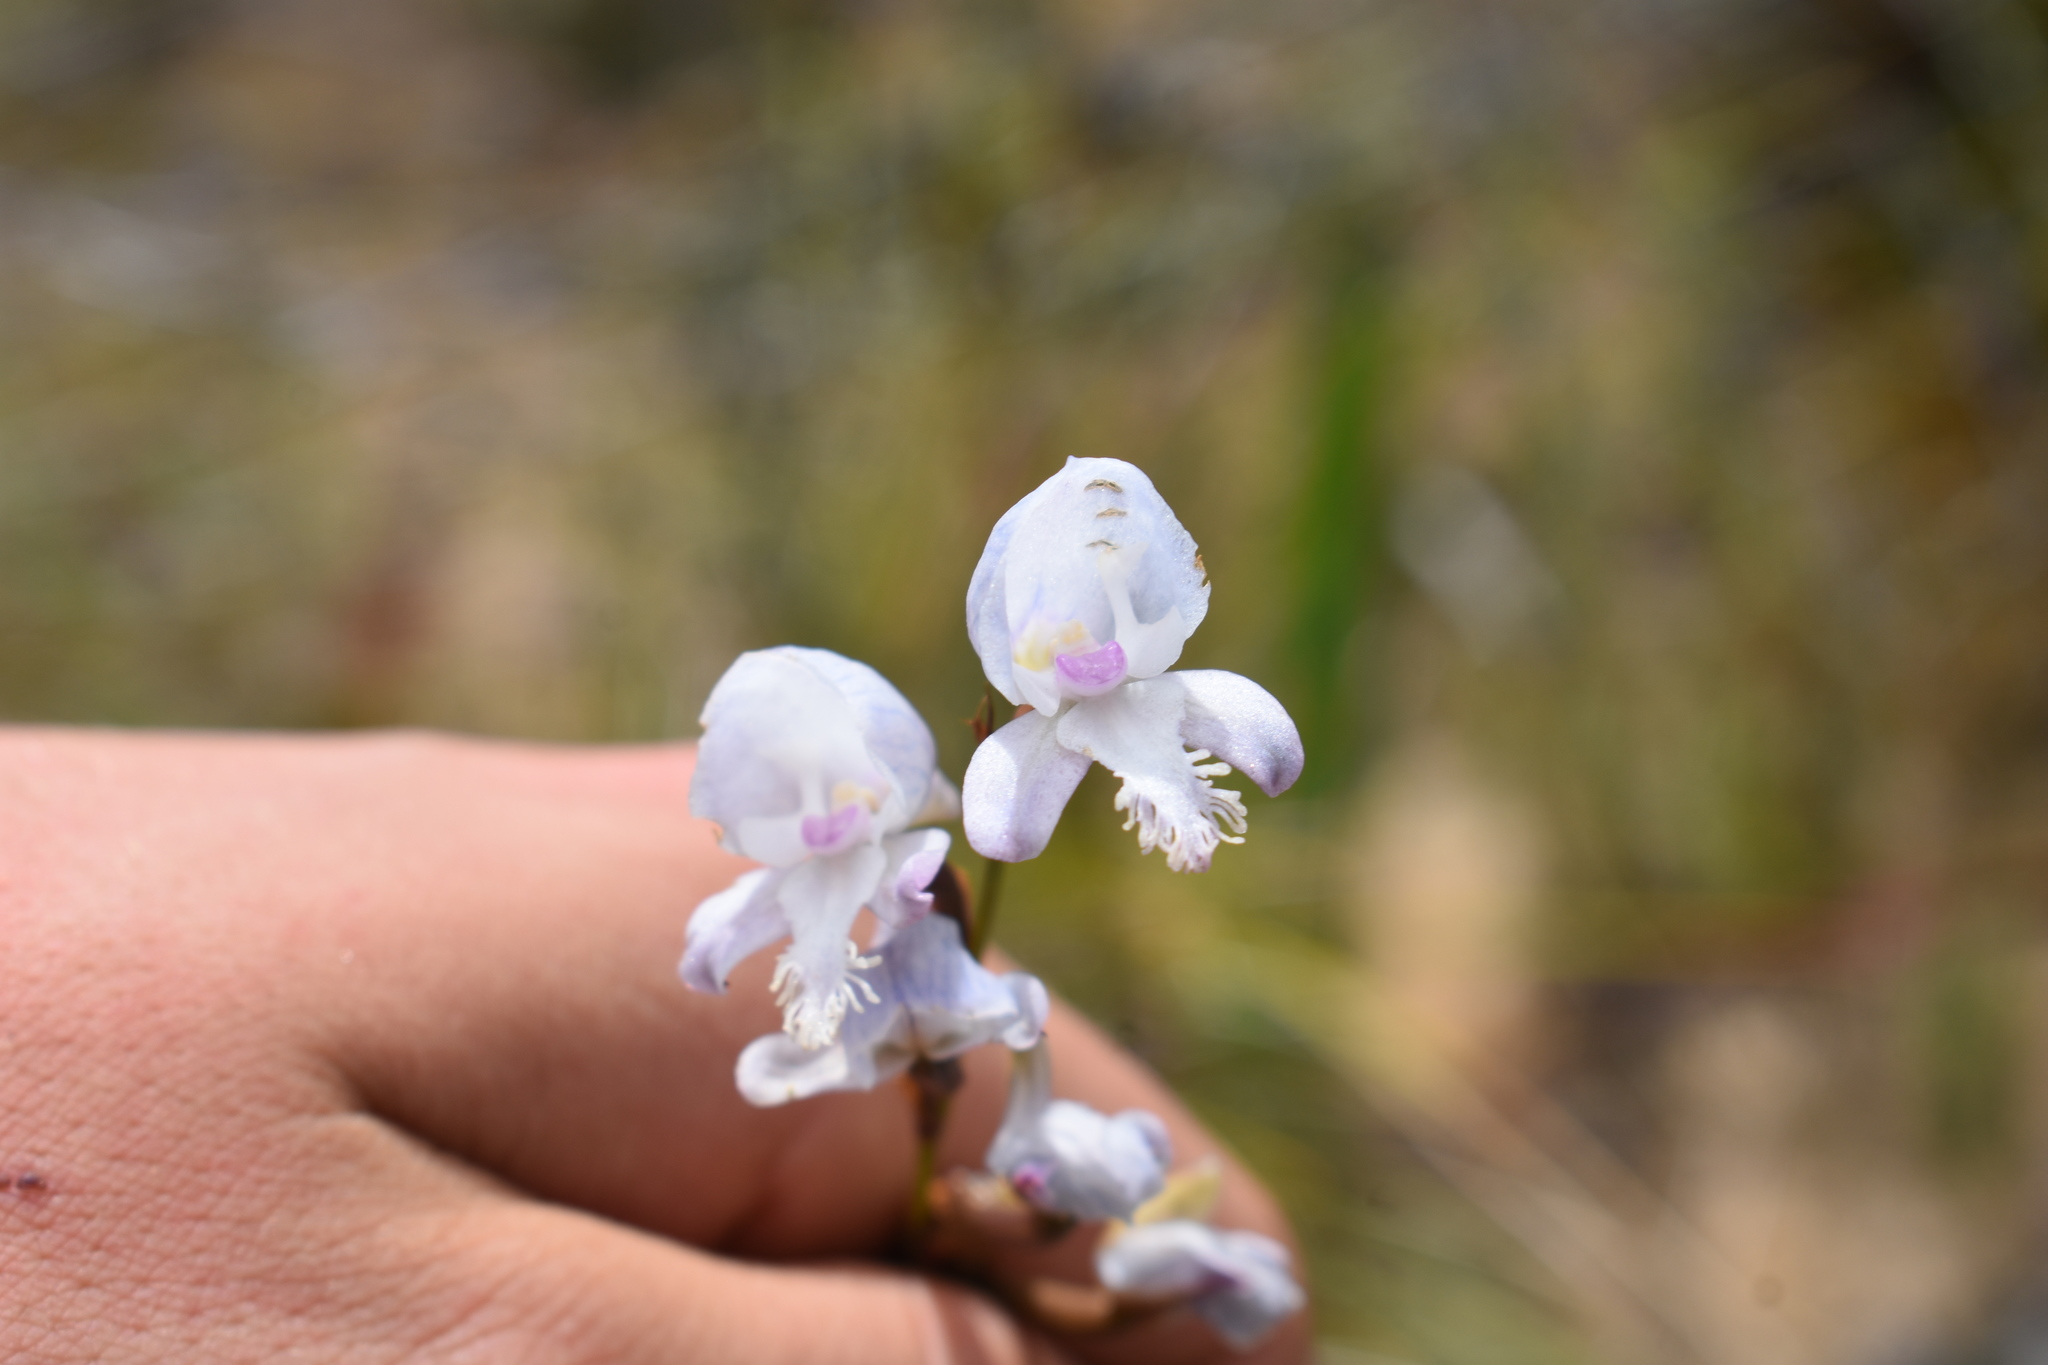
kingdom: Plantae
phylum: Tracheophyta
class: Liliopsida
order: Asparagales
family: Orchidaceae
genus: Disa
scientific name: Disa hians
